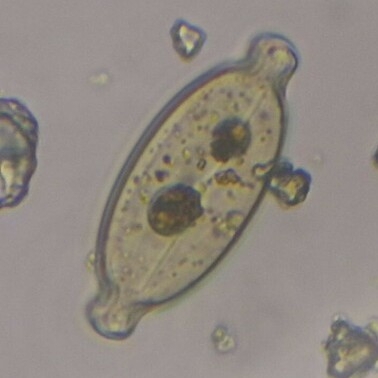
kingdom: Chromista
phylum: Ochrophyta
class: Bacillariophyceae
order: Naviculales
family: Naviculaceae
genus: Caloneis
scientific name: Caloneis amphisbaena
